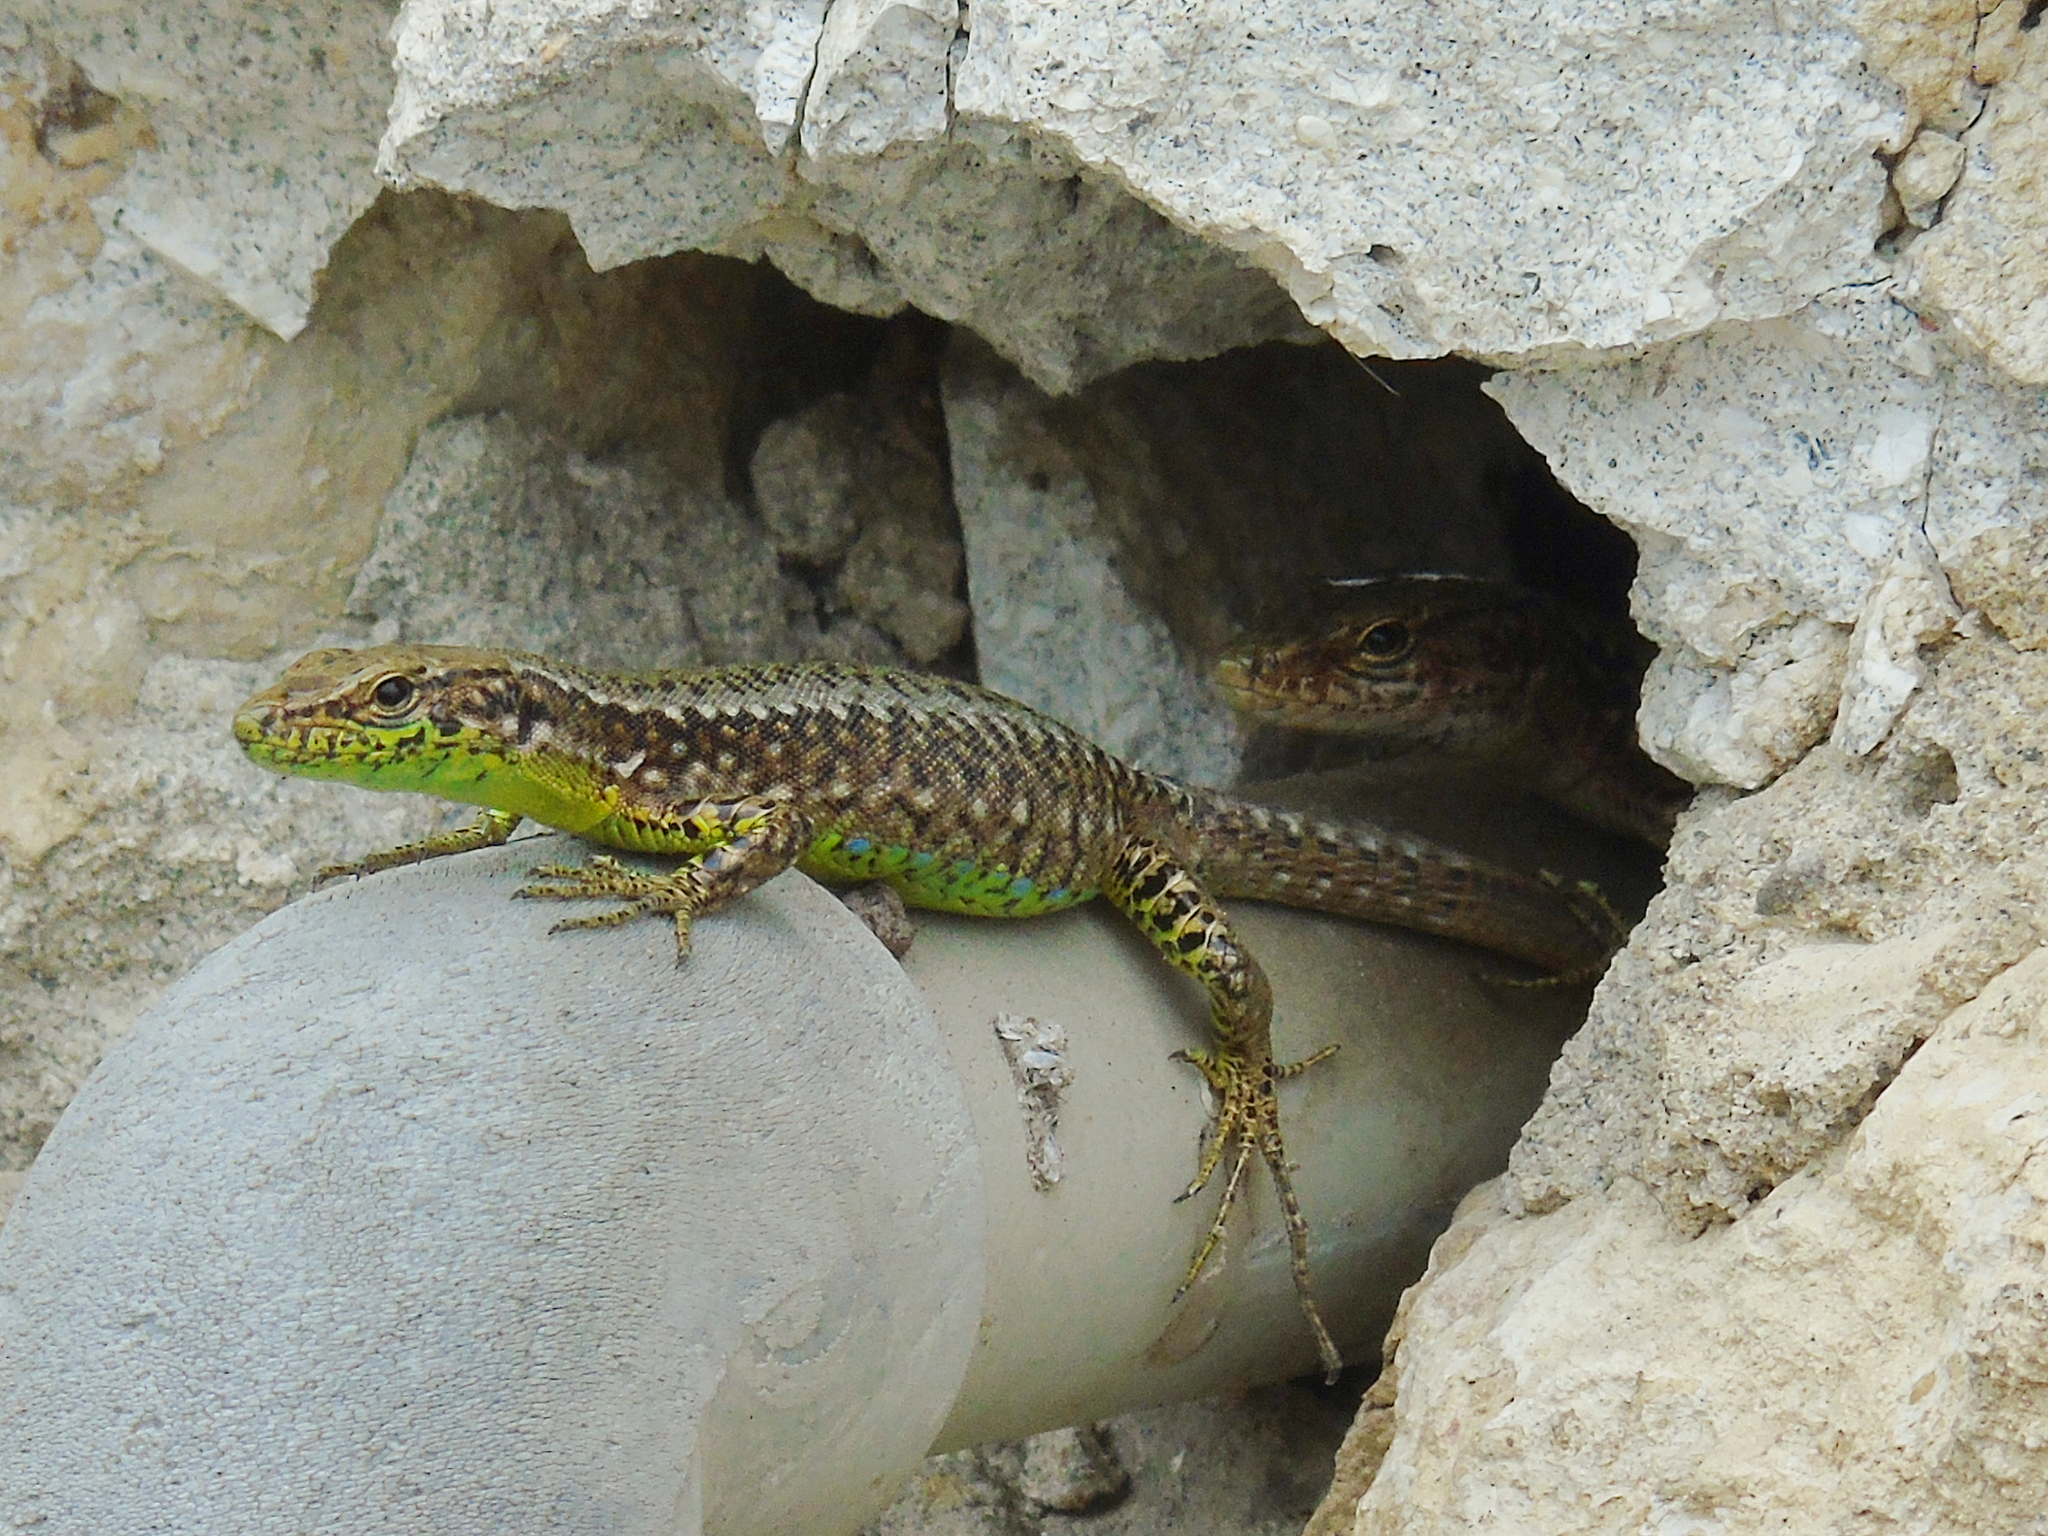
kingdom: Animalia
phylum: Chordata
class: Squamata
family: Lacertidae
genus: Darevskia
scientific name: Darevskia rudis
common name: Spiny-tailed lizard
